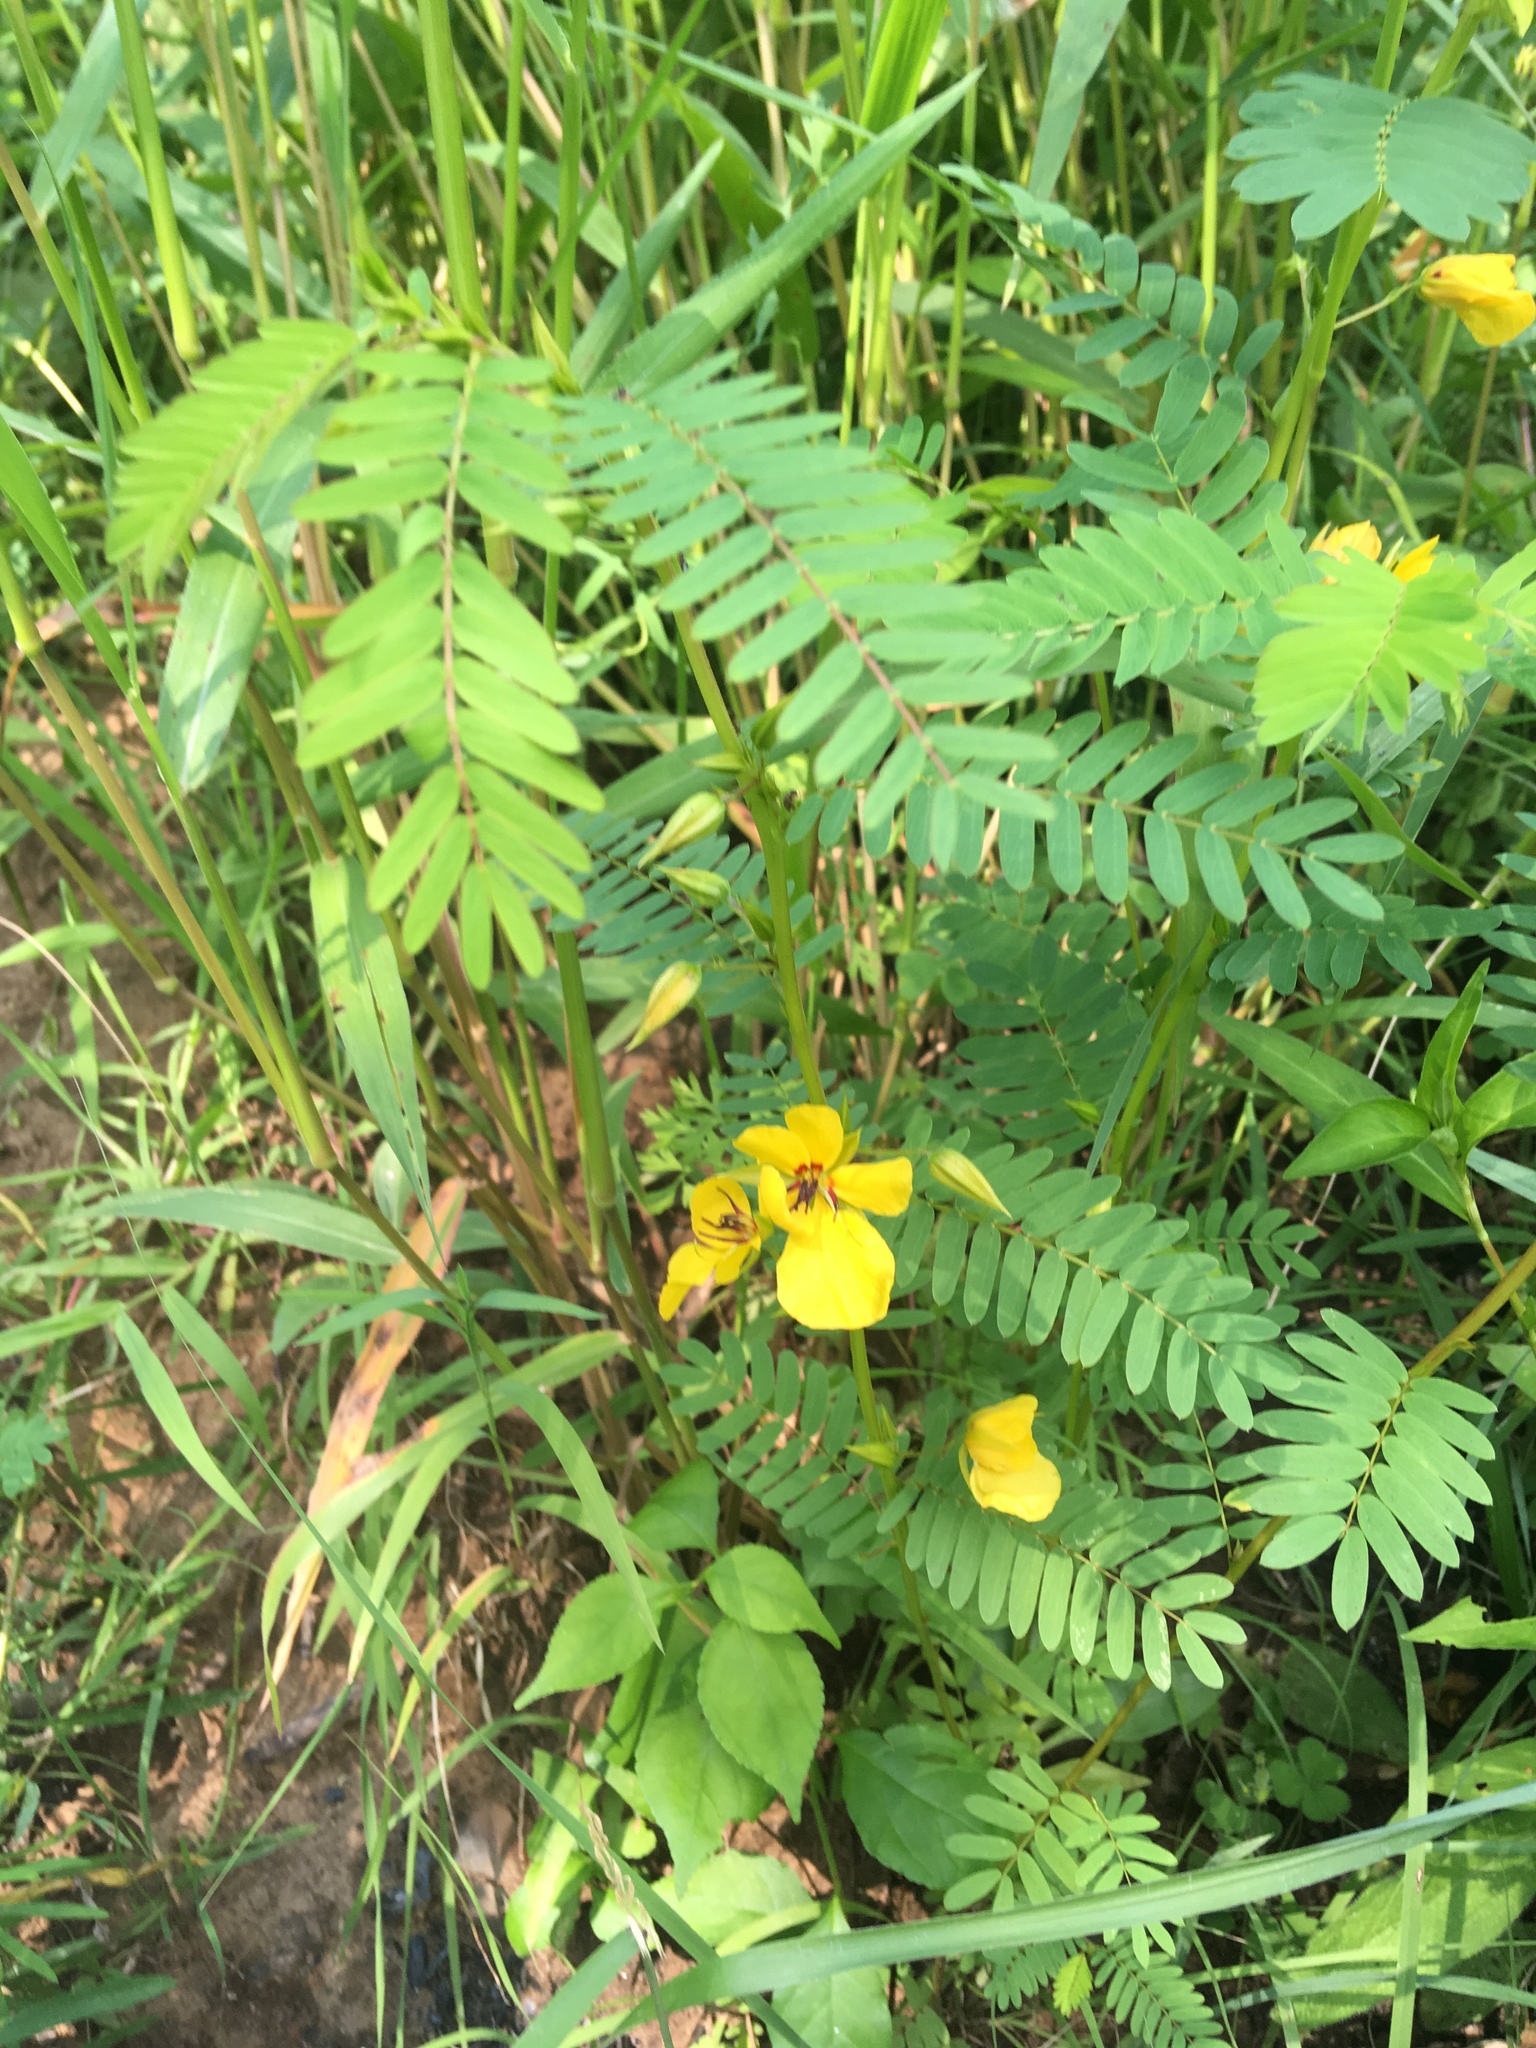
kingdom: Plantae
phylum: Tracheophyta
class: Magnoliopsida
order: Fabales
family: Fabaceae
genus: Chamaecrista
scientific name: Chamaecrista fasciculata
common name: Golden cassia
